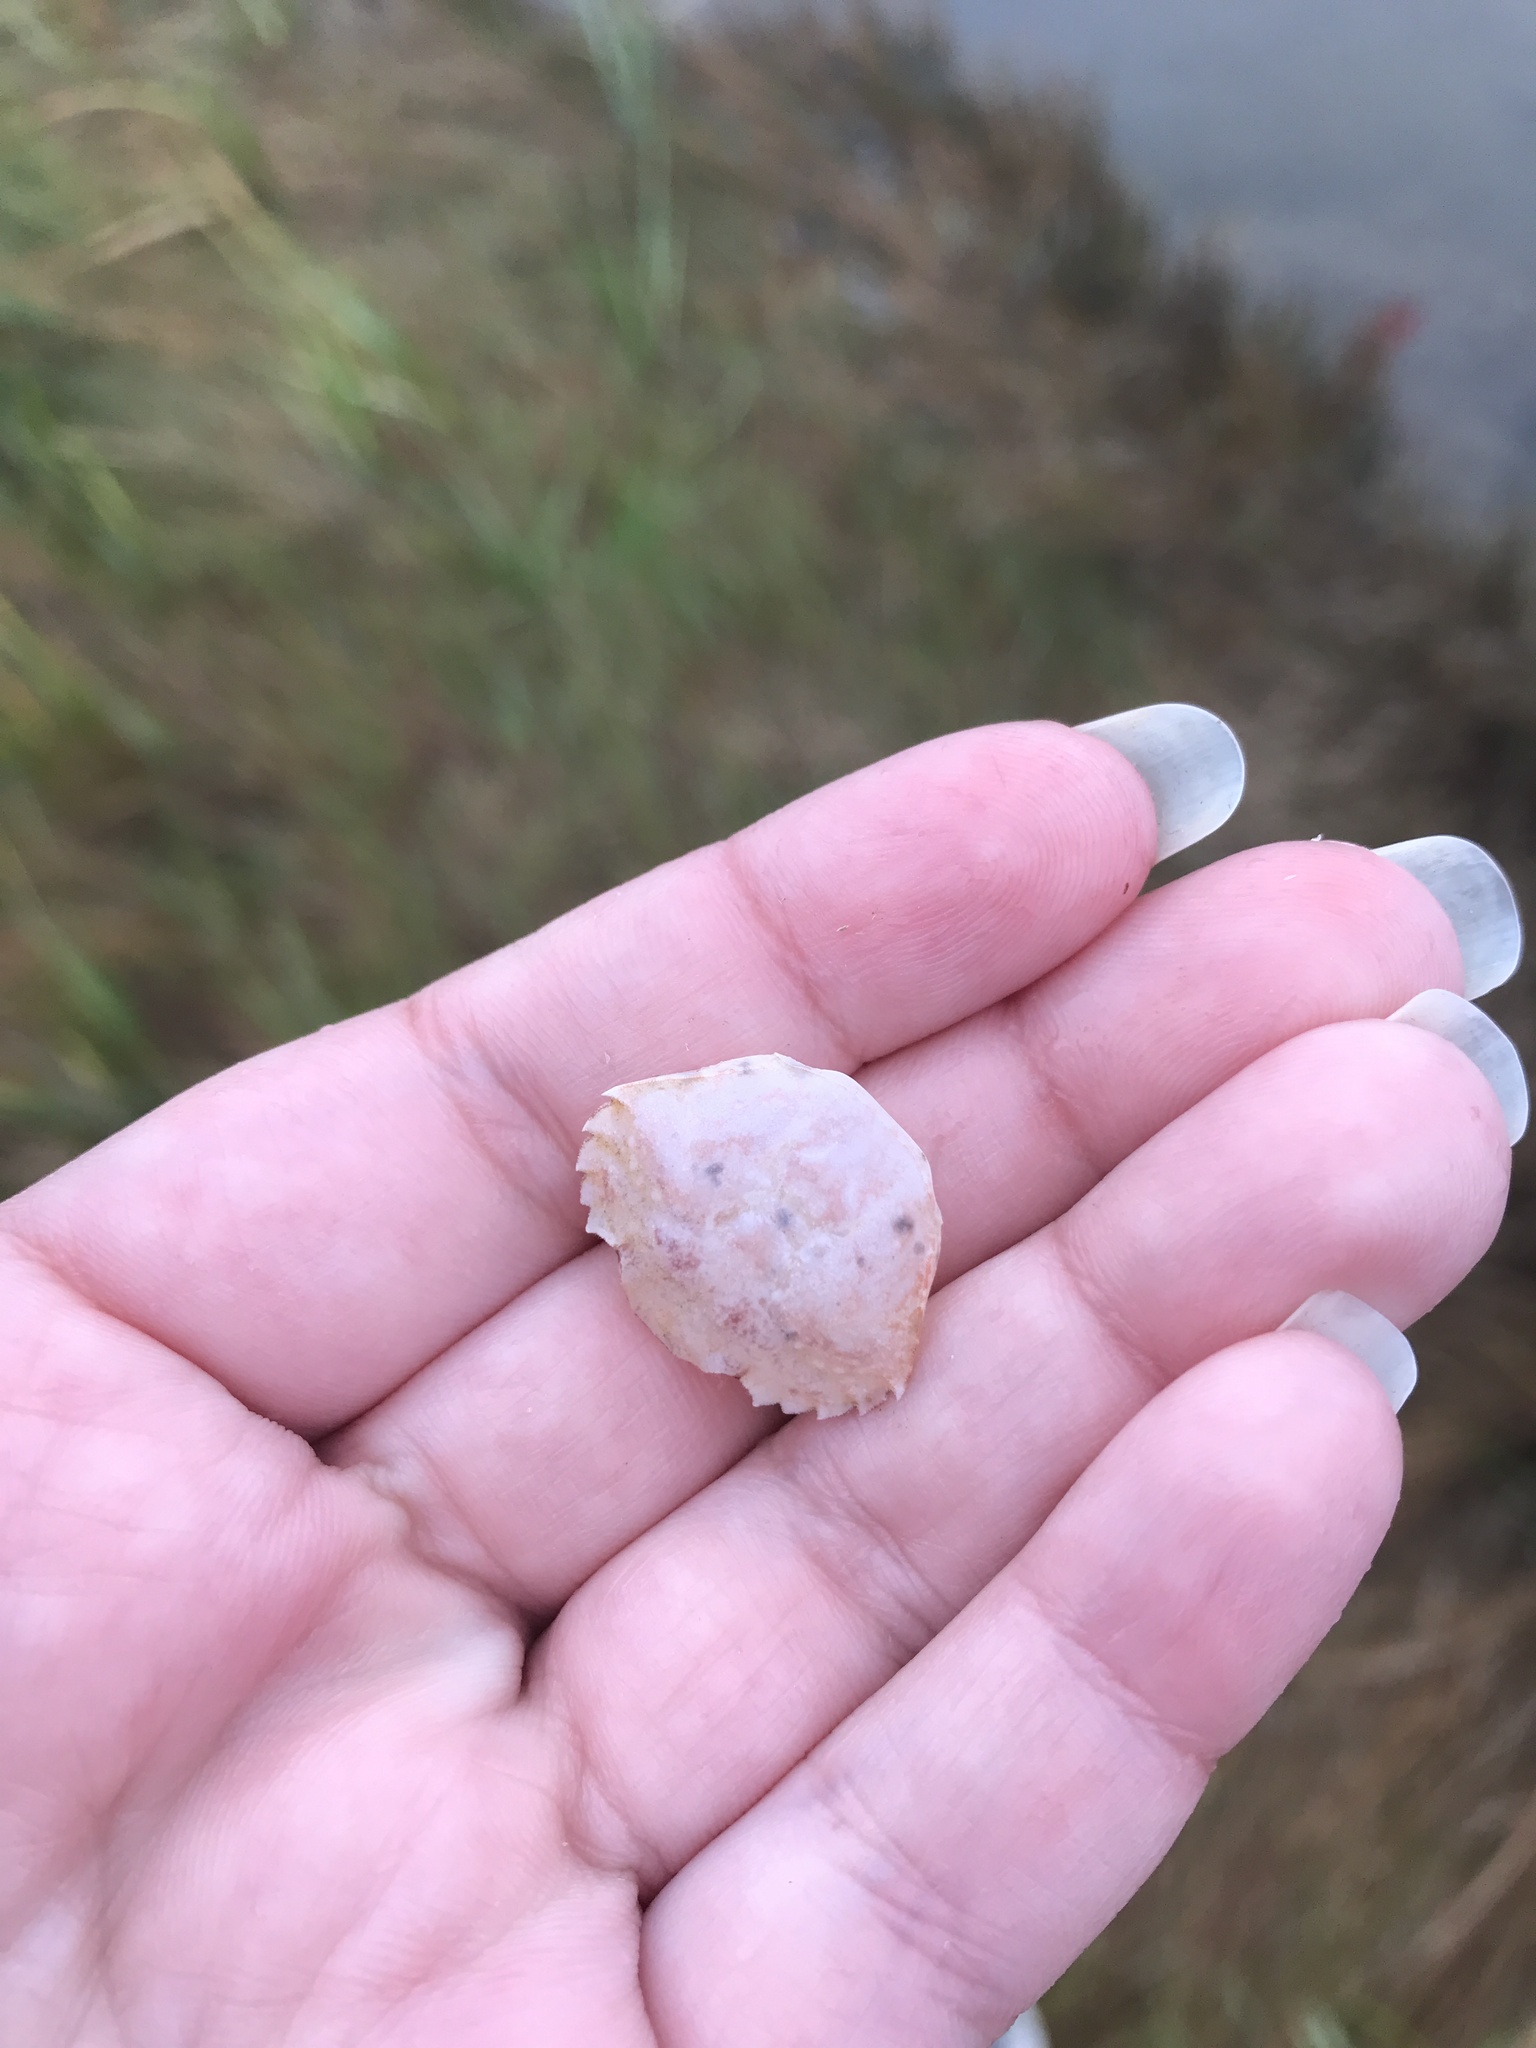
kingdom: Animalia
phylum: Arthropoda
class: Malacostraca
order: Decapoda
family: Carcinidae
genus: Carcinus
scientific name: Carcinus maenas
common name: European green crab
